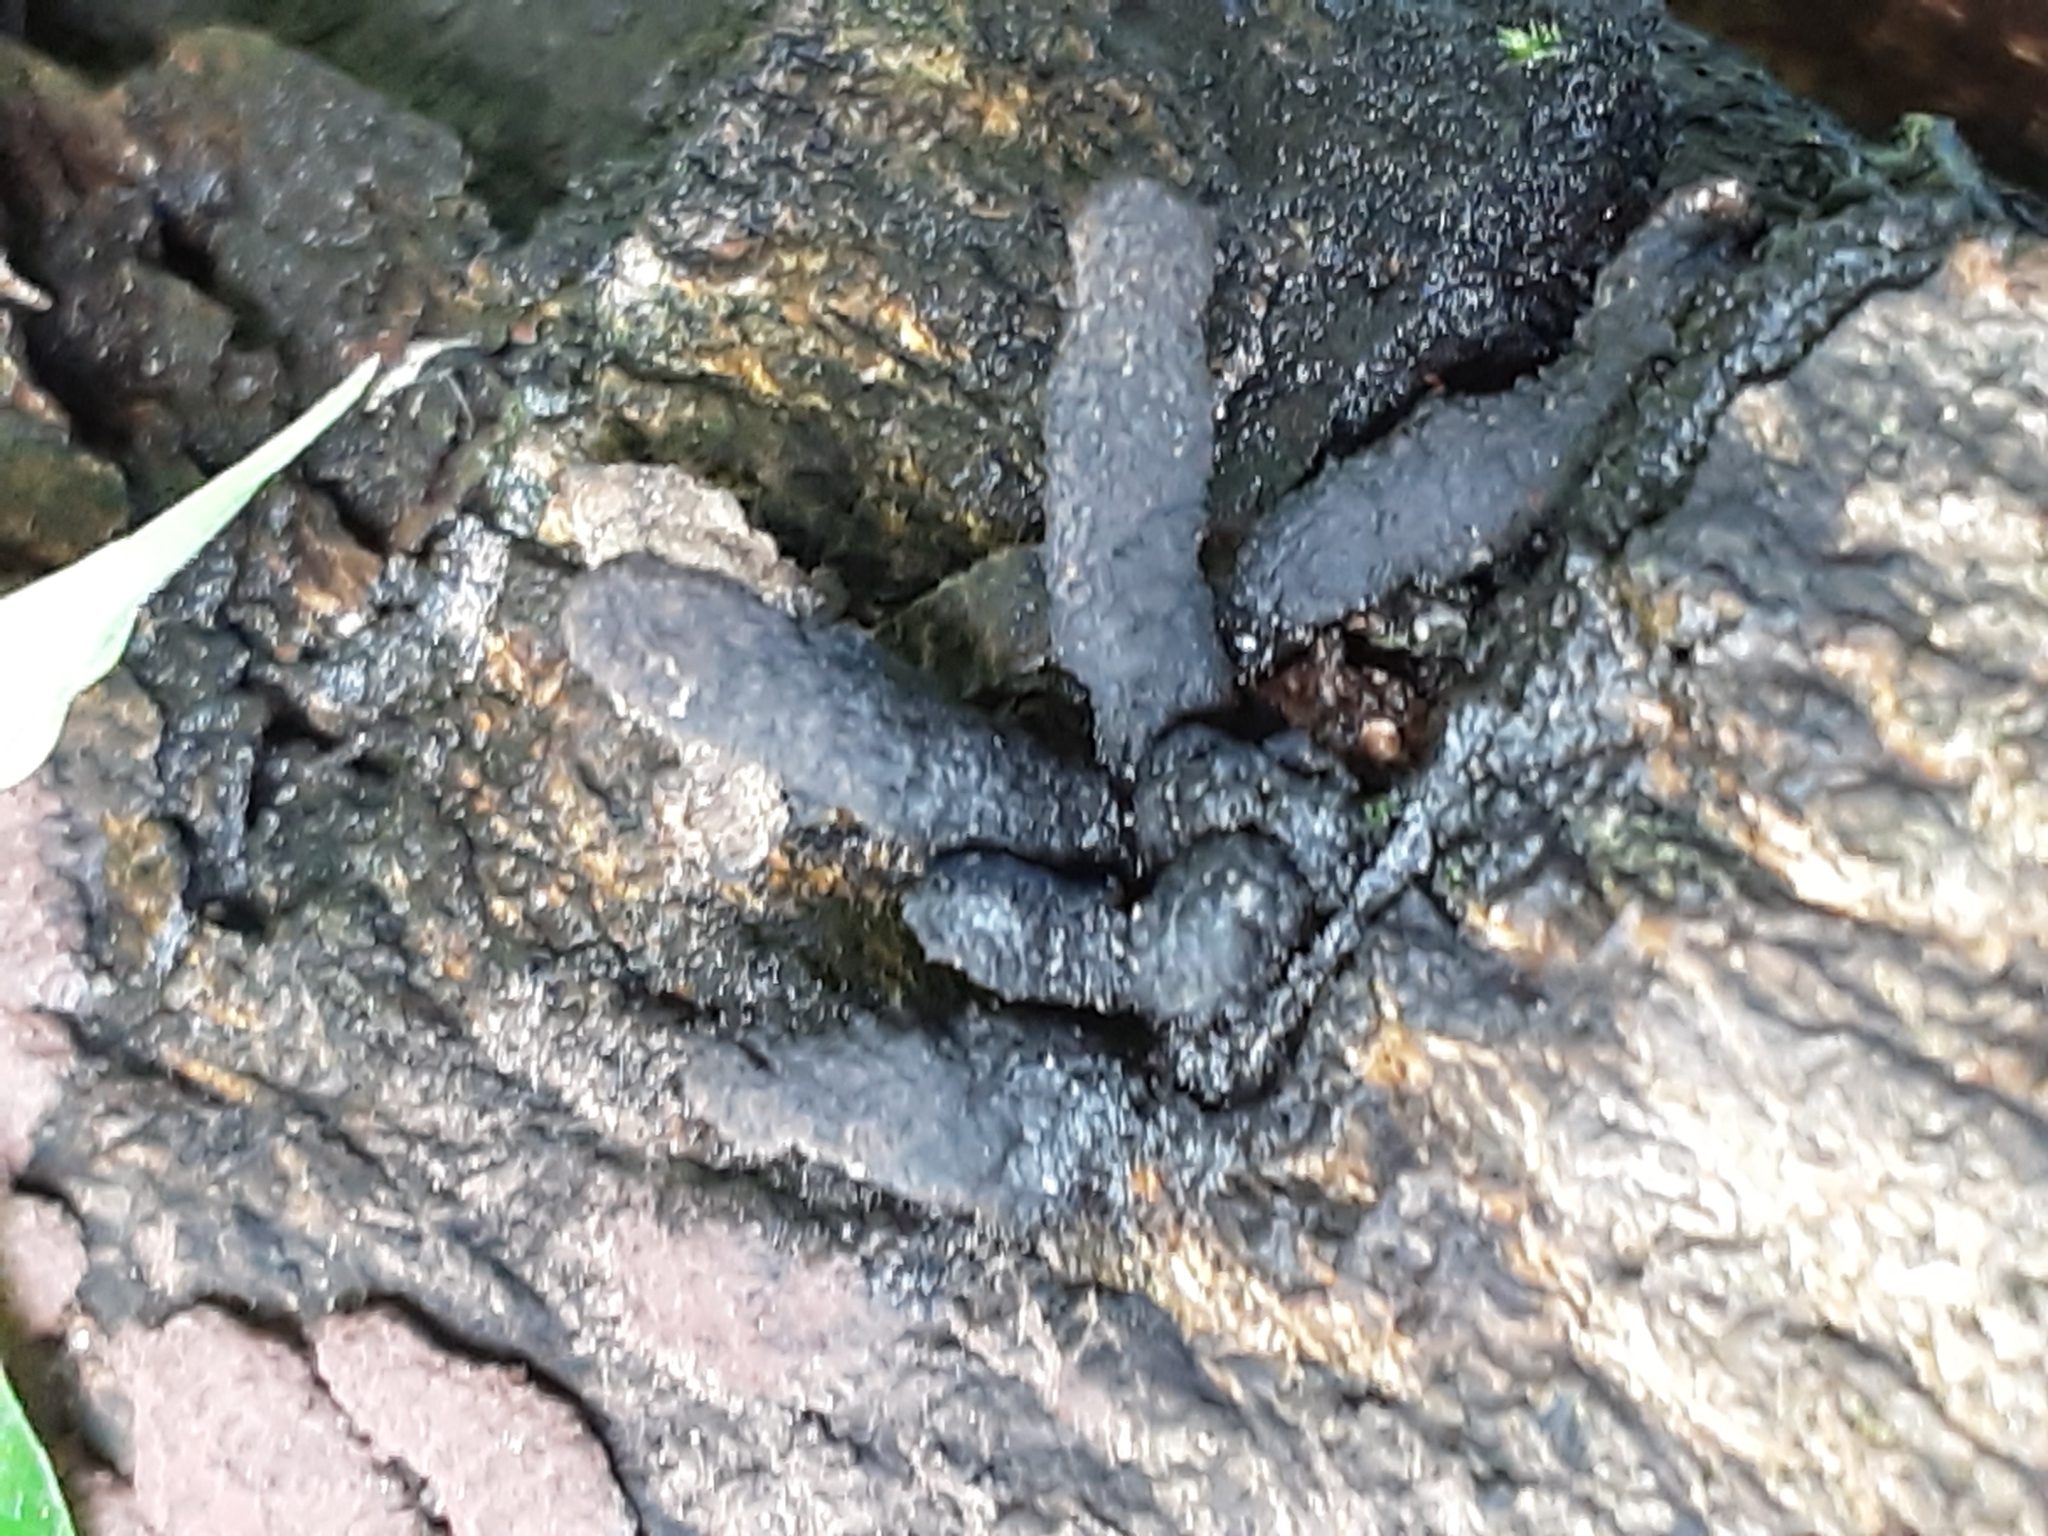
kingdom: Fungi
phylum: Ascomycota
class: Sordariomycetes
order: Xylariales
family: Xylariaceae
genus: Xylaria
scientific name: Xylaria polymorpha
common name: Dead man's fingers
